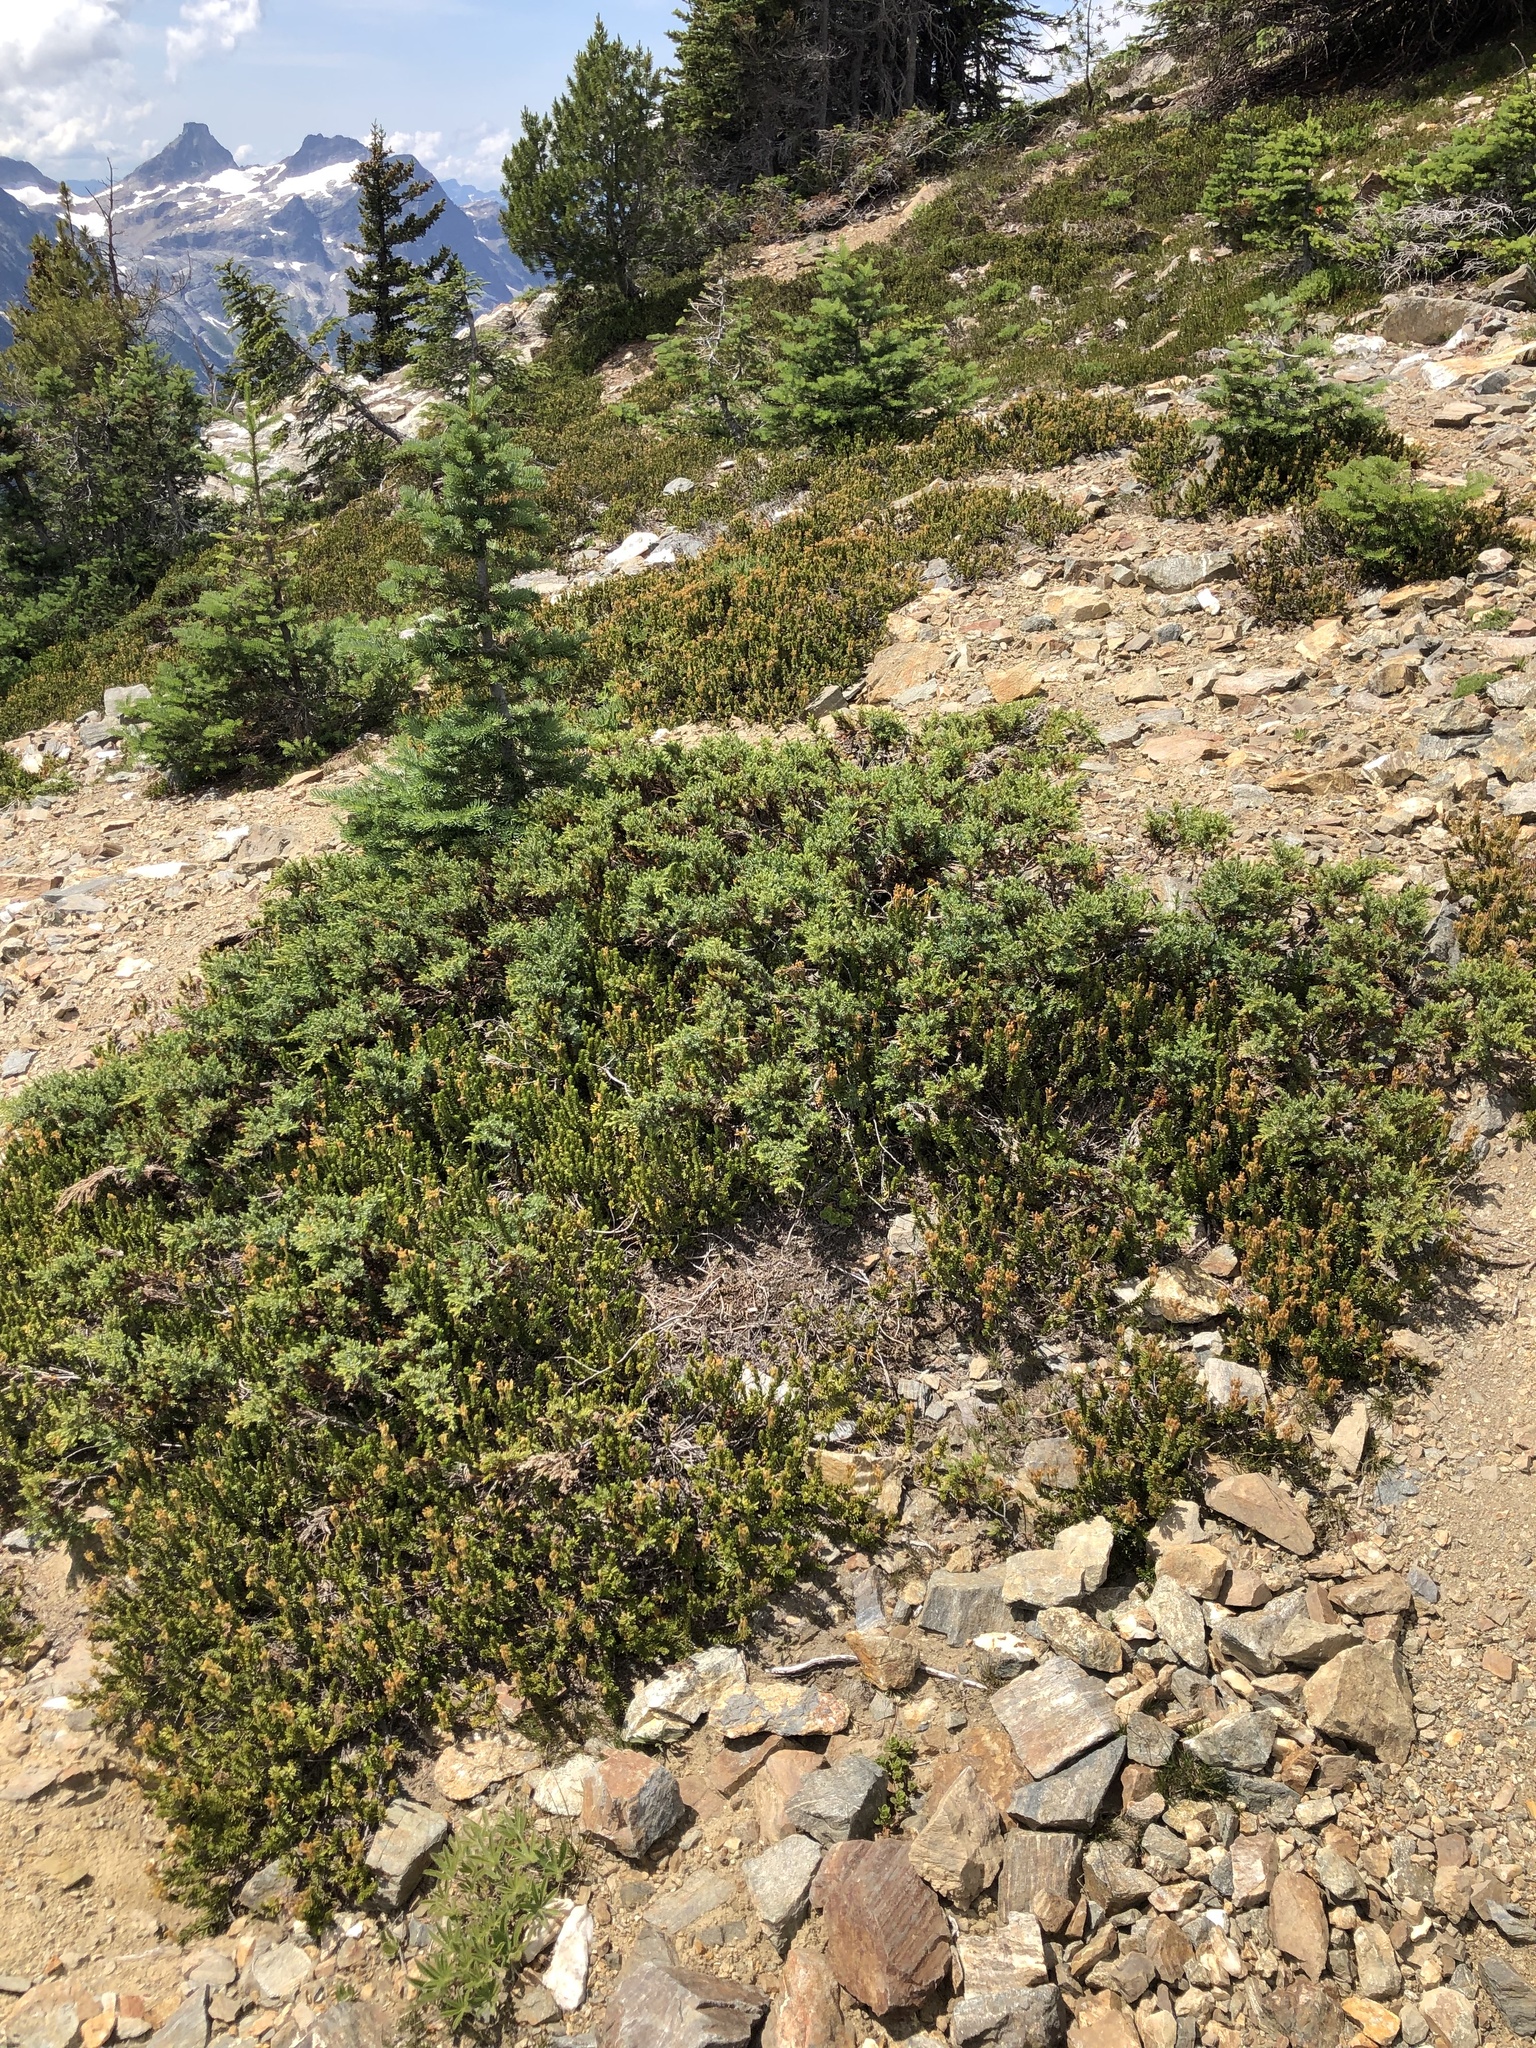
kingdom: Plantae
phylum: Tracheophyta
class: Pinopsida
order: Pinales
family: Cupressaceae
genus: Juniperus
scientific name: Juniperus communis
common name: Common juniper
